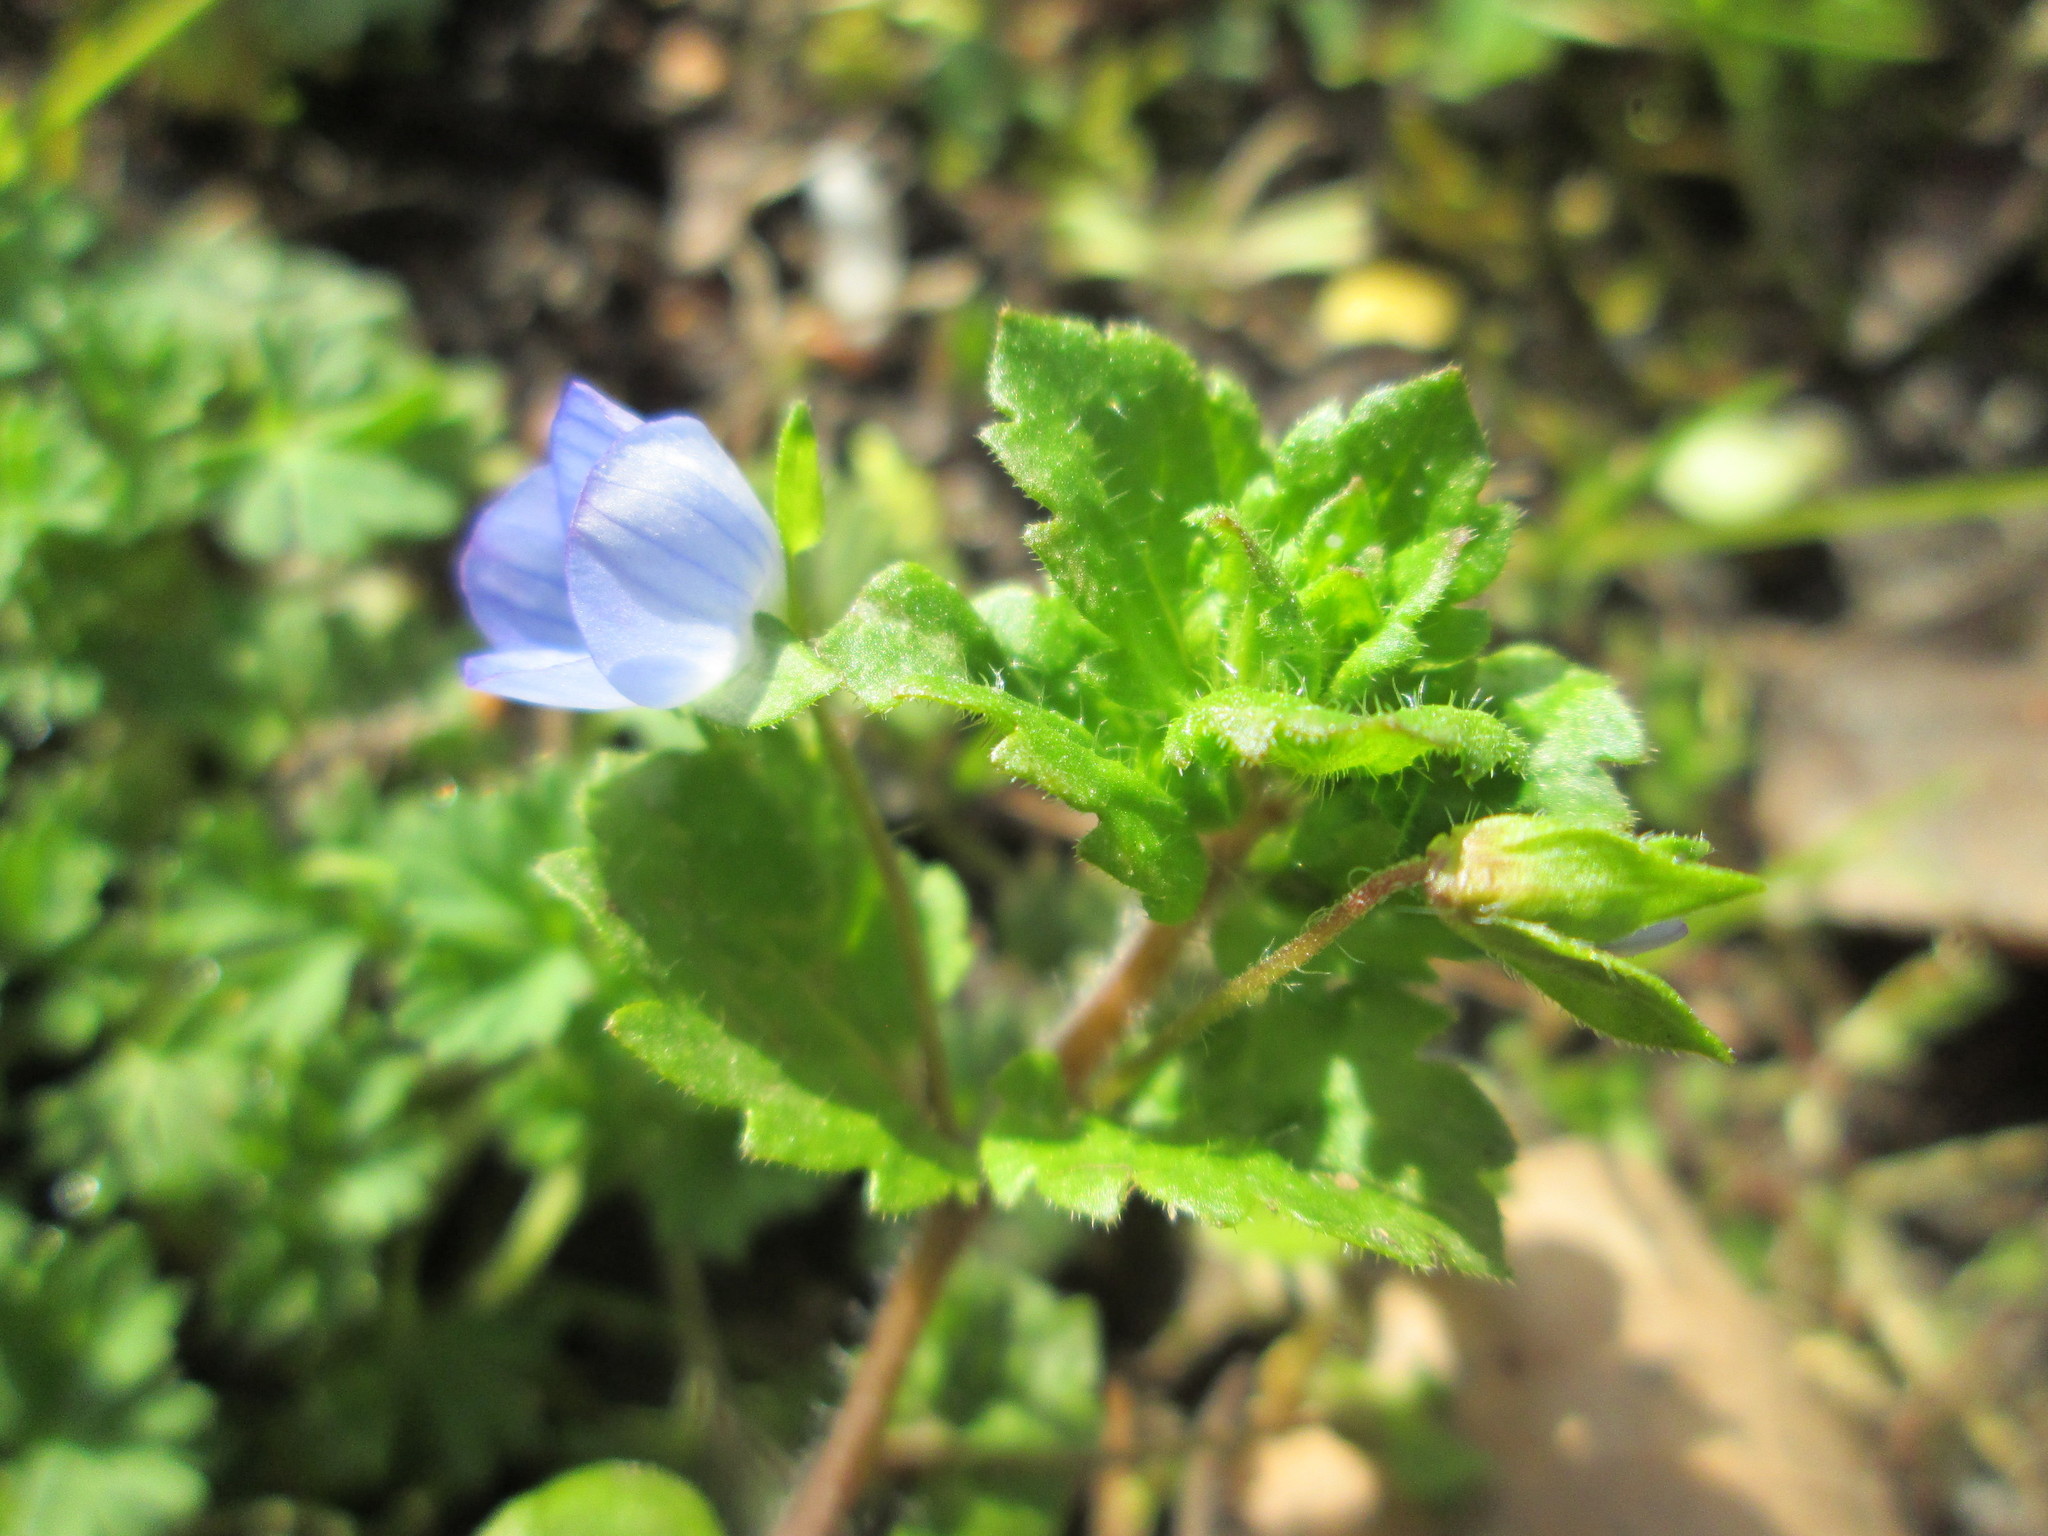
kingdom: Plantae
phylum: Tracheophyta
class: Magnoliopsida
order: Lamiales
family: Plantaginaceae
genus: Veronica
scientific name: Veronica persica
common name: Common field-speedwell
